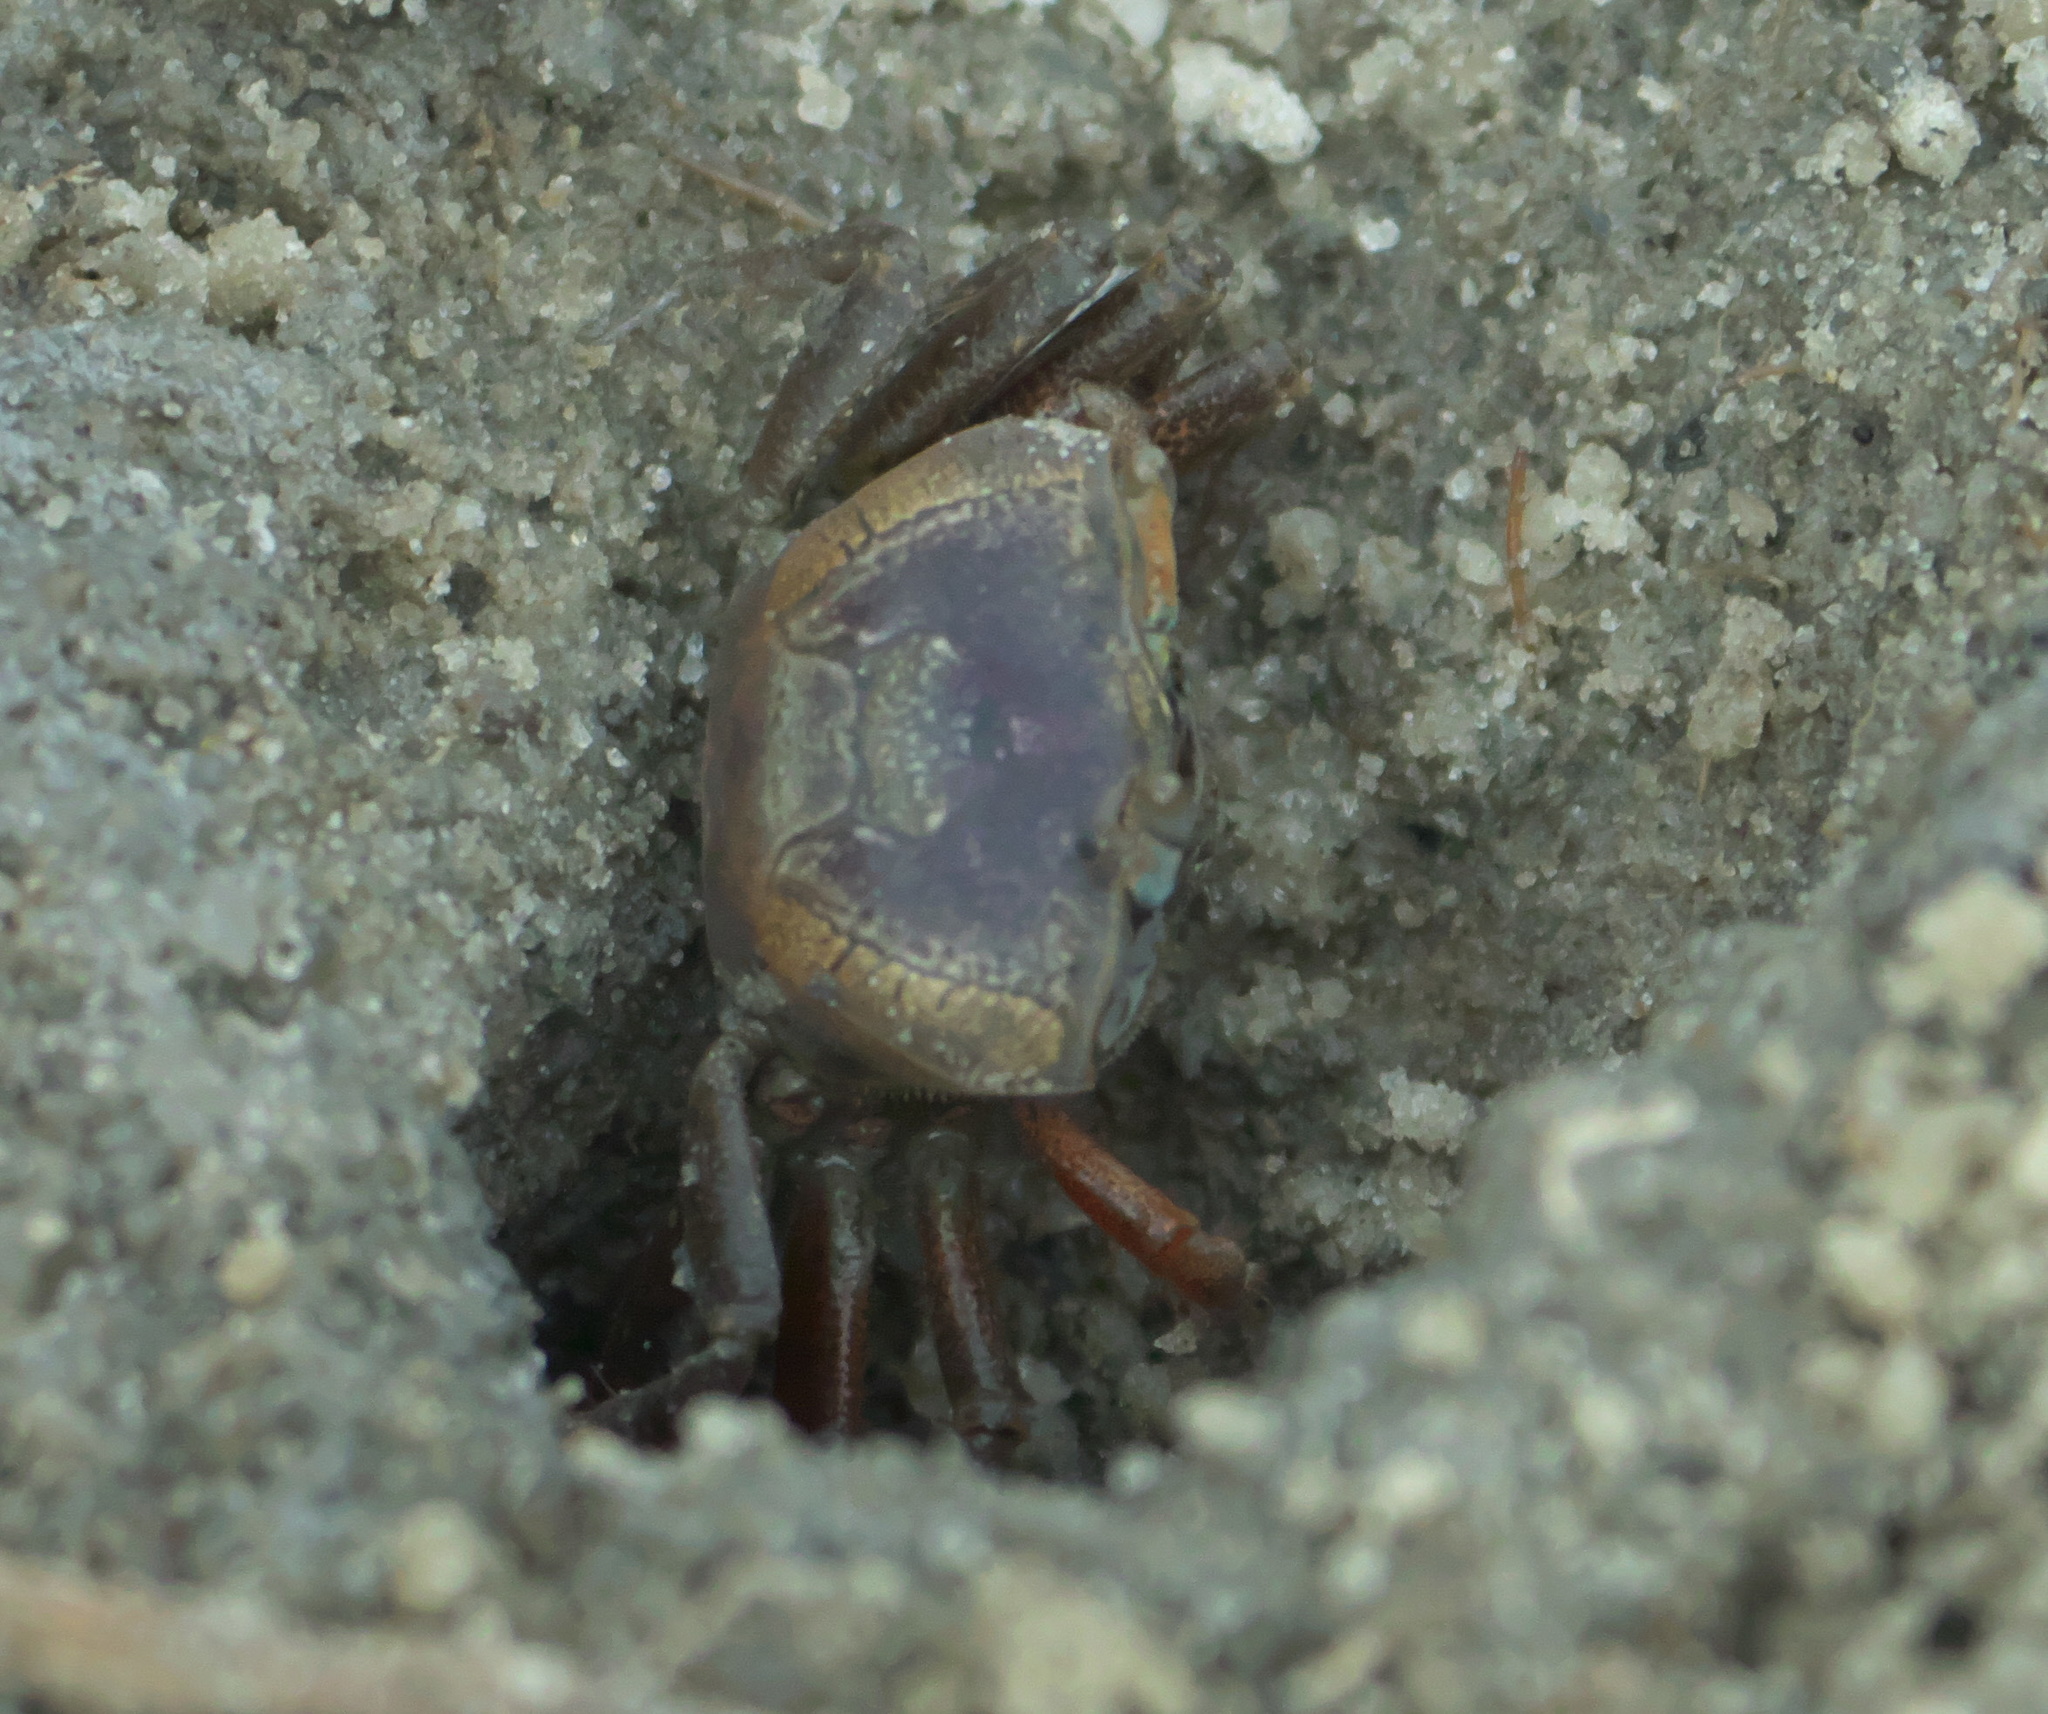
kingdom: Animalia
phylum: Arthropoda
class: Malacostraca
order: Decapoda
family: Ocypodidae
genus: Leptuca
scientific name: Leptuca pugilator
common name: Atlantic sand fiddler crab
